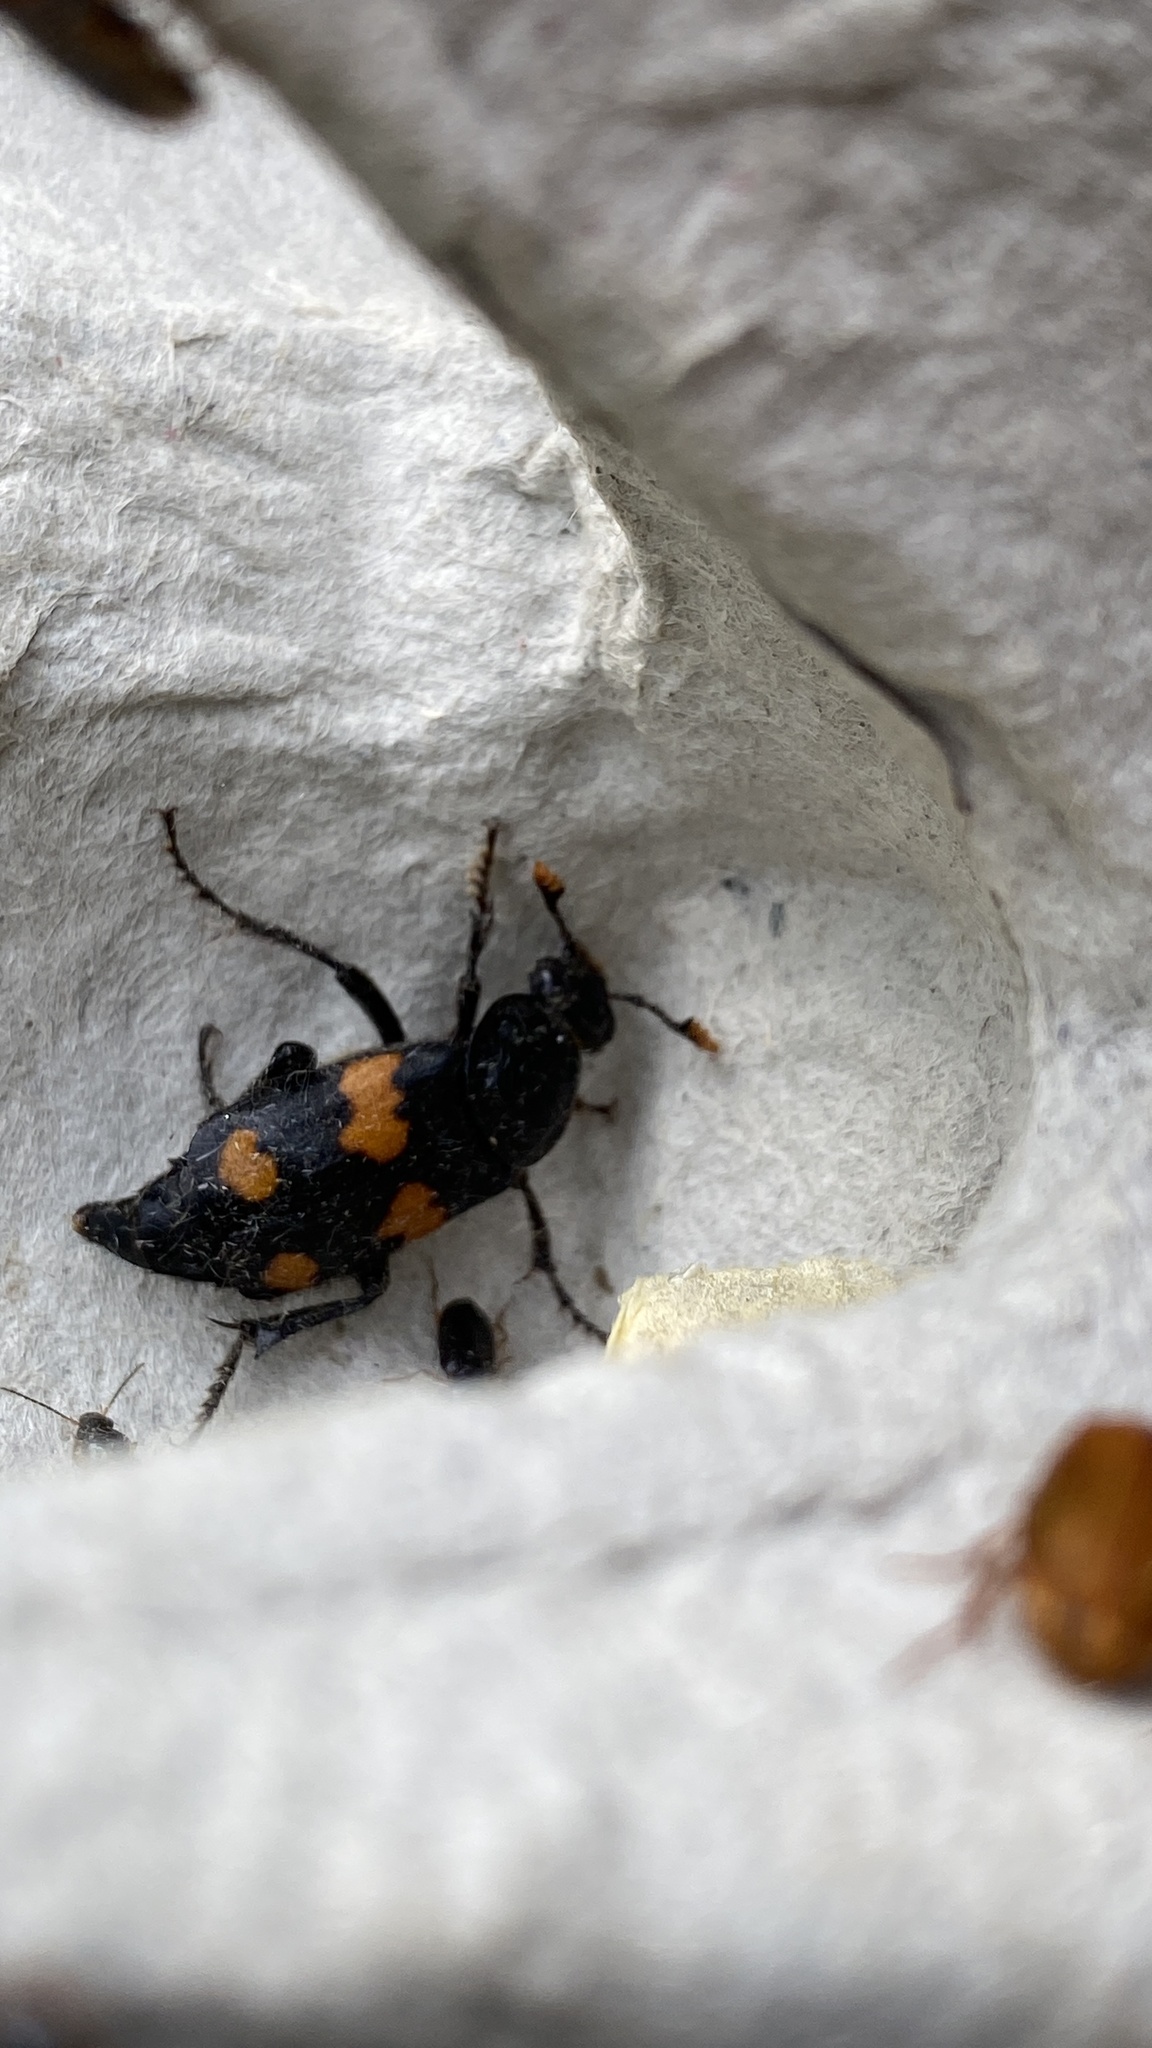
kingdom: Animalia
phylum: Arthropoda
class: Insecta
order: Coleoptera
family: Staphylinidae
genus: Nicrophorus
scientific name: Nicrophorus orbicollis
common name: Roundneck sexton beetle
